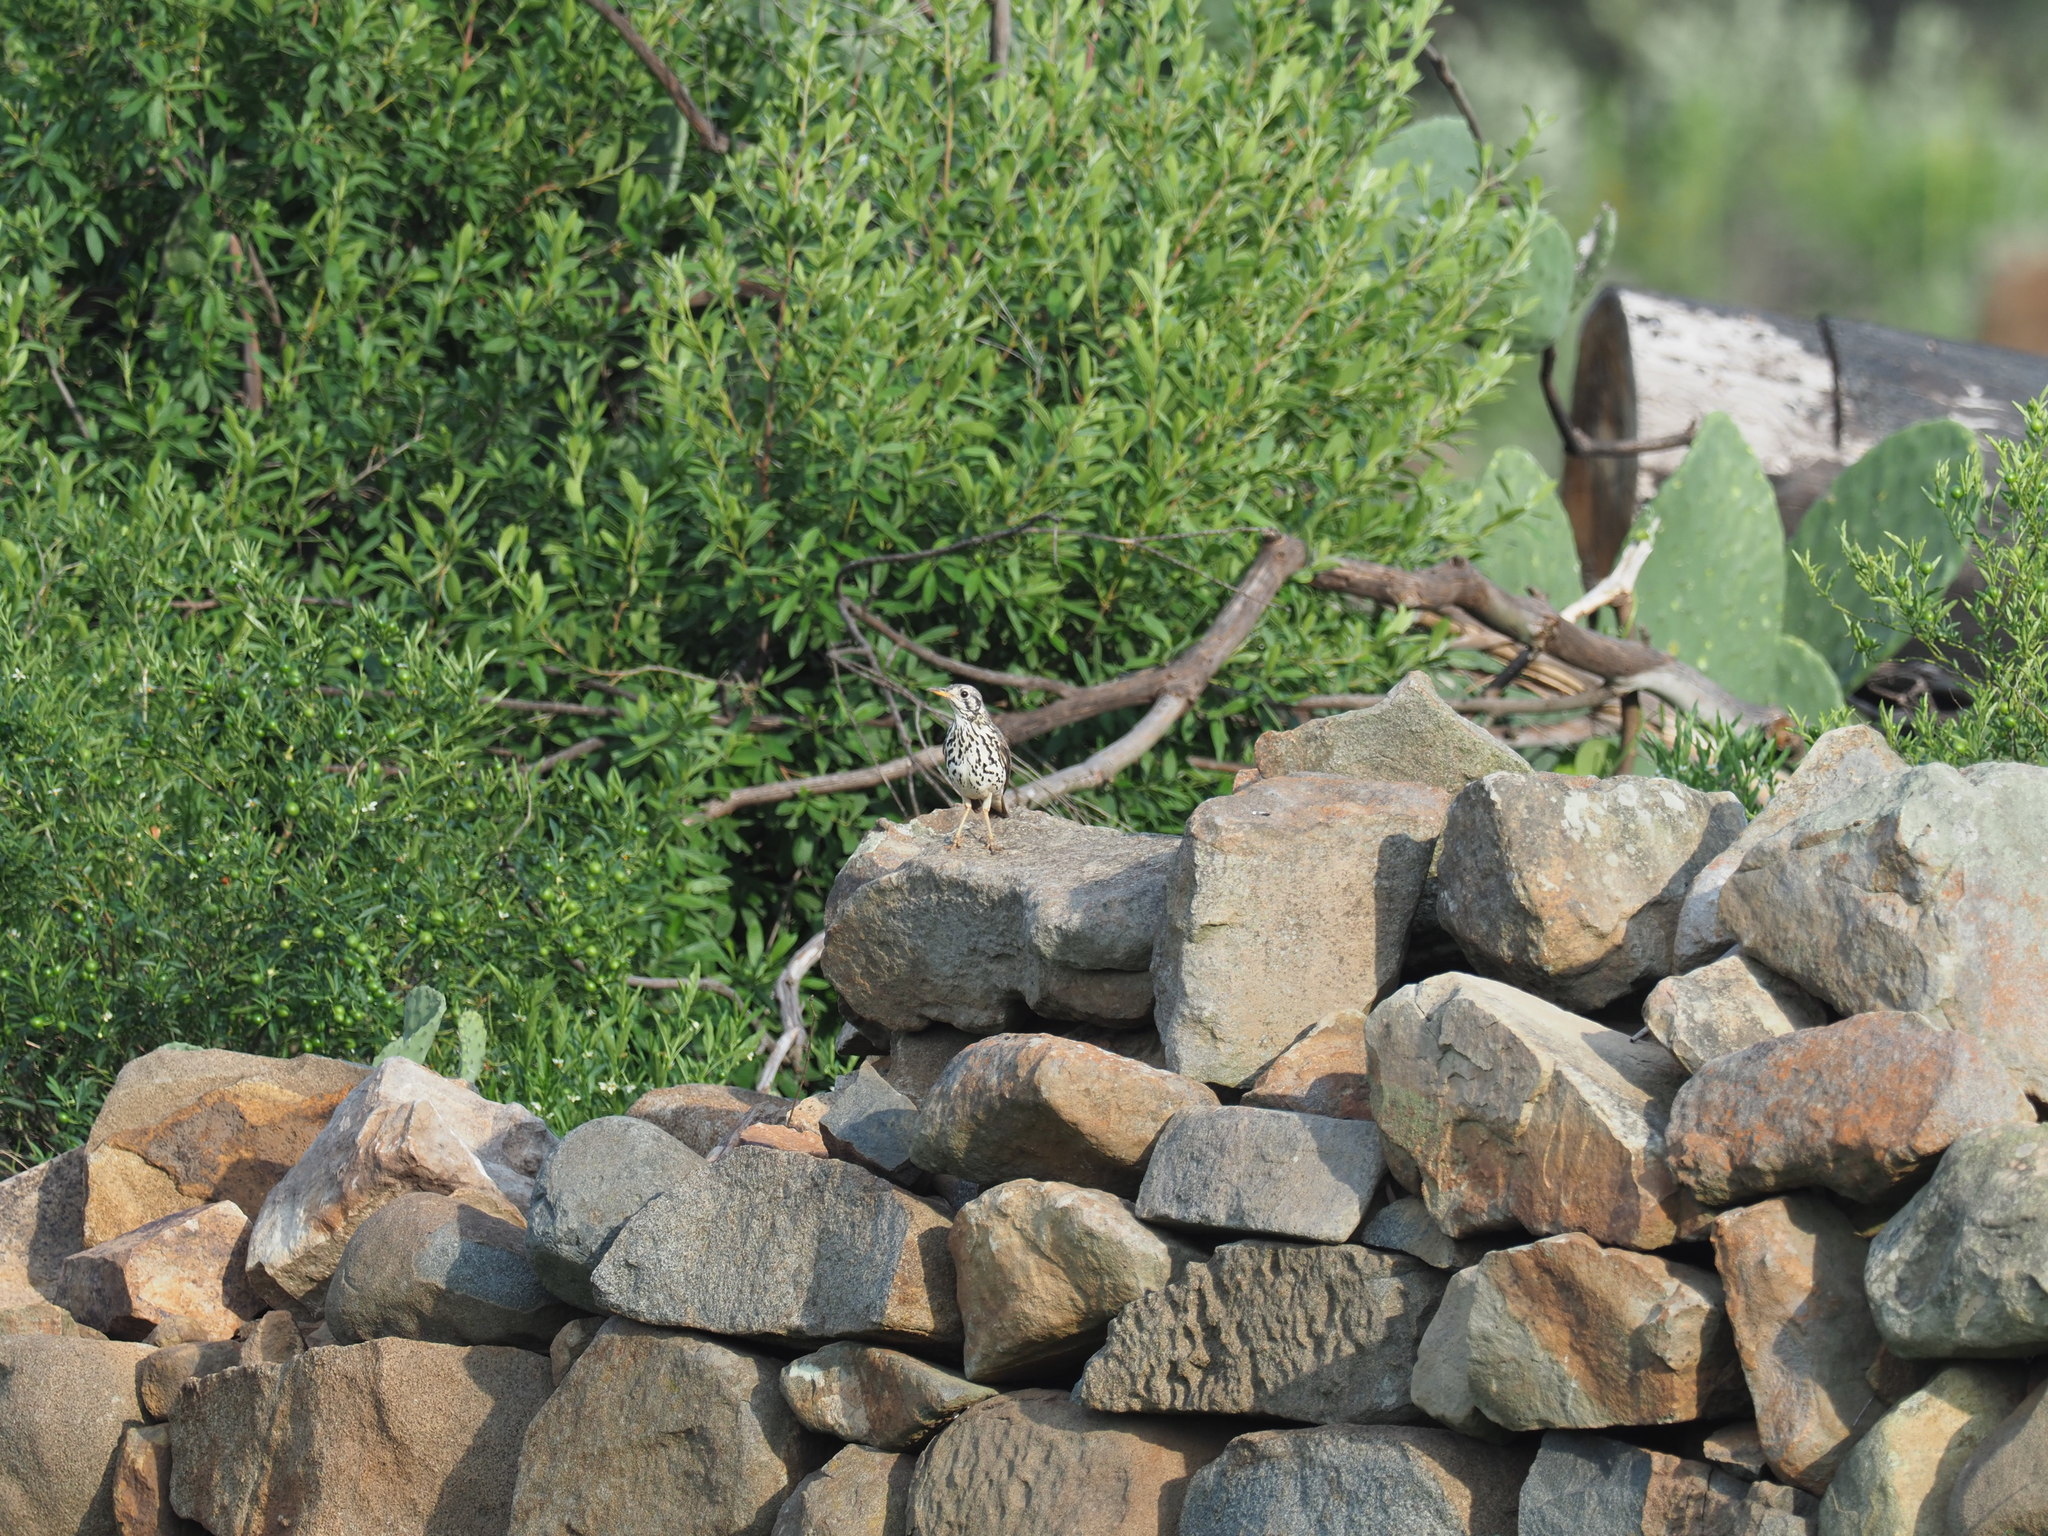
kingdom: Animalia
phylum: Chordata
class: Aves
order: Passeriformes
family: Turdidae
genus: Psophocichla
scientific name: Psophocichla litsitsirupa
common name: Groundscraper thrush
